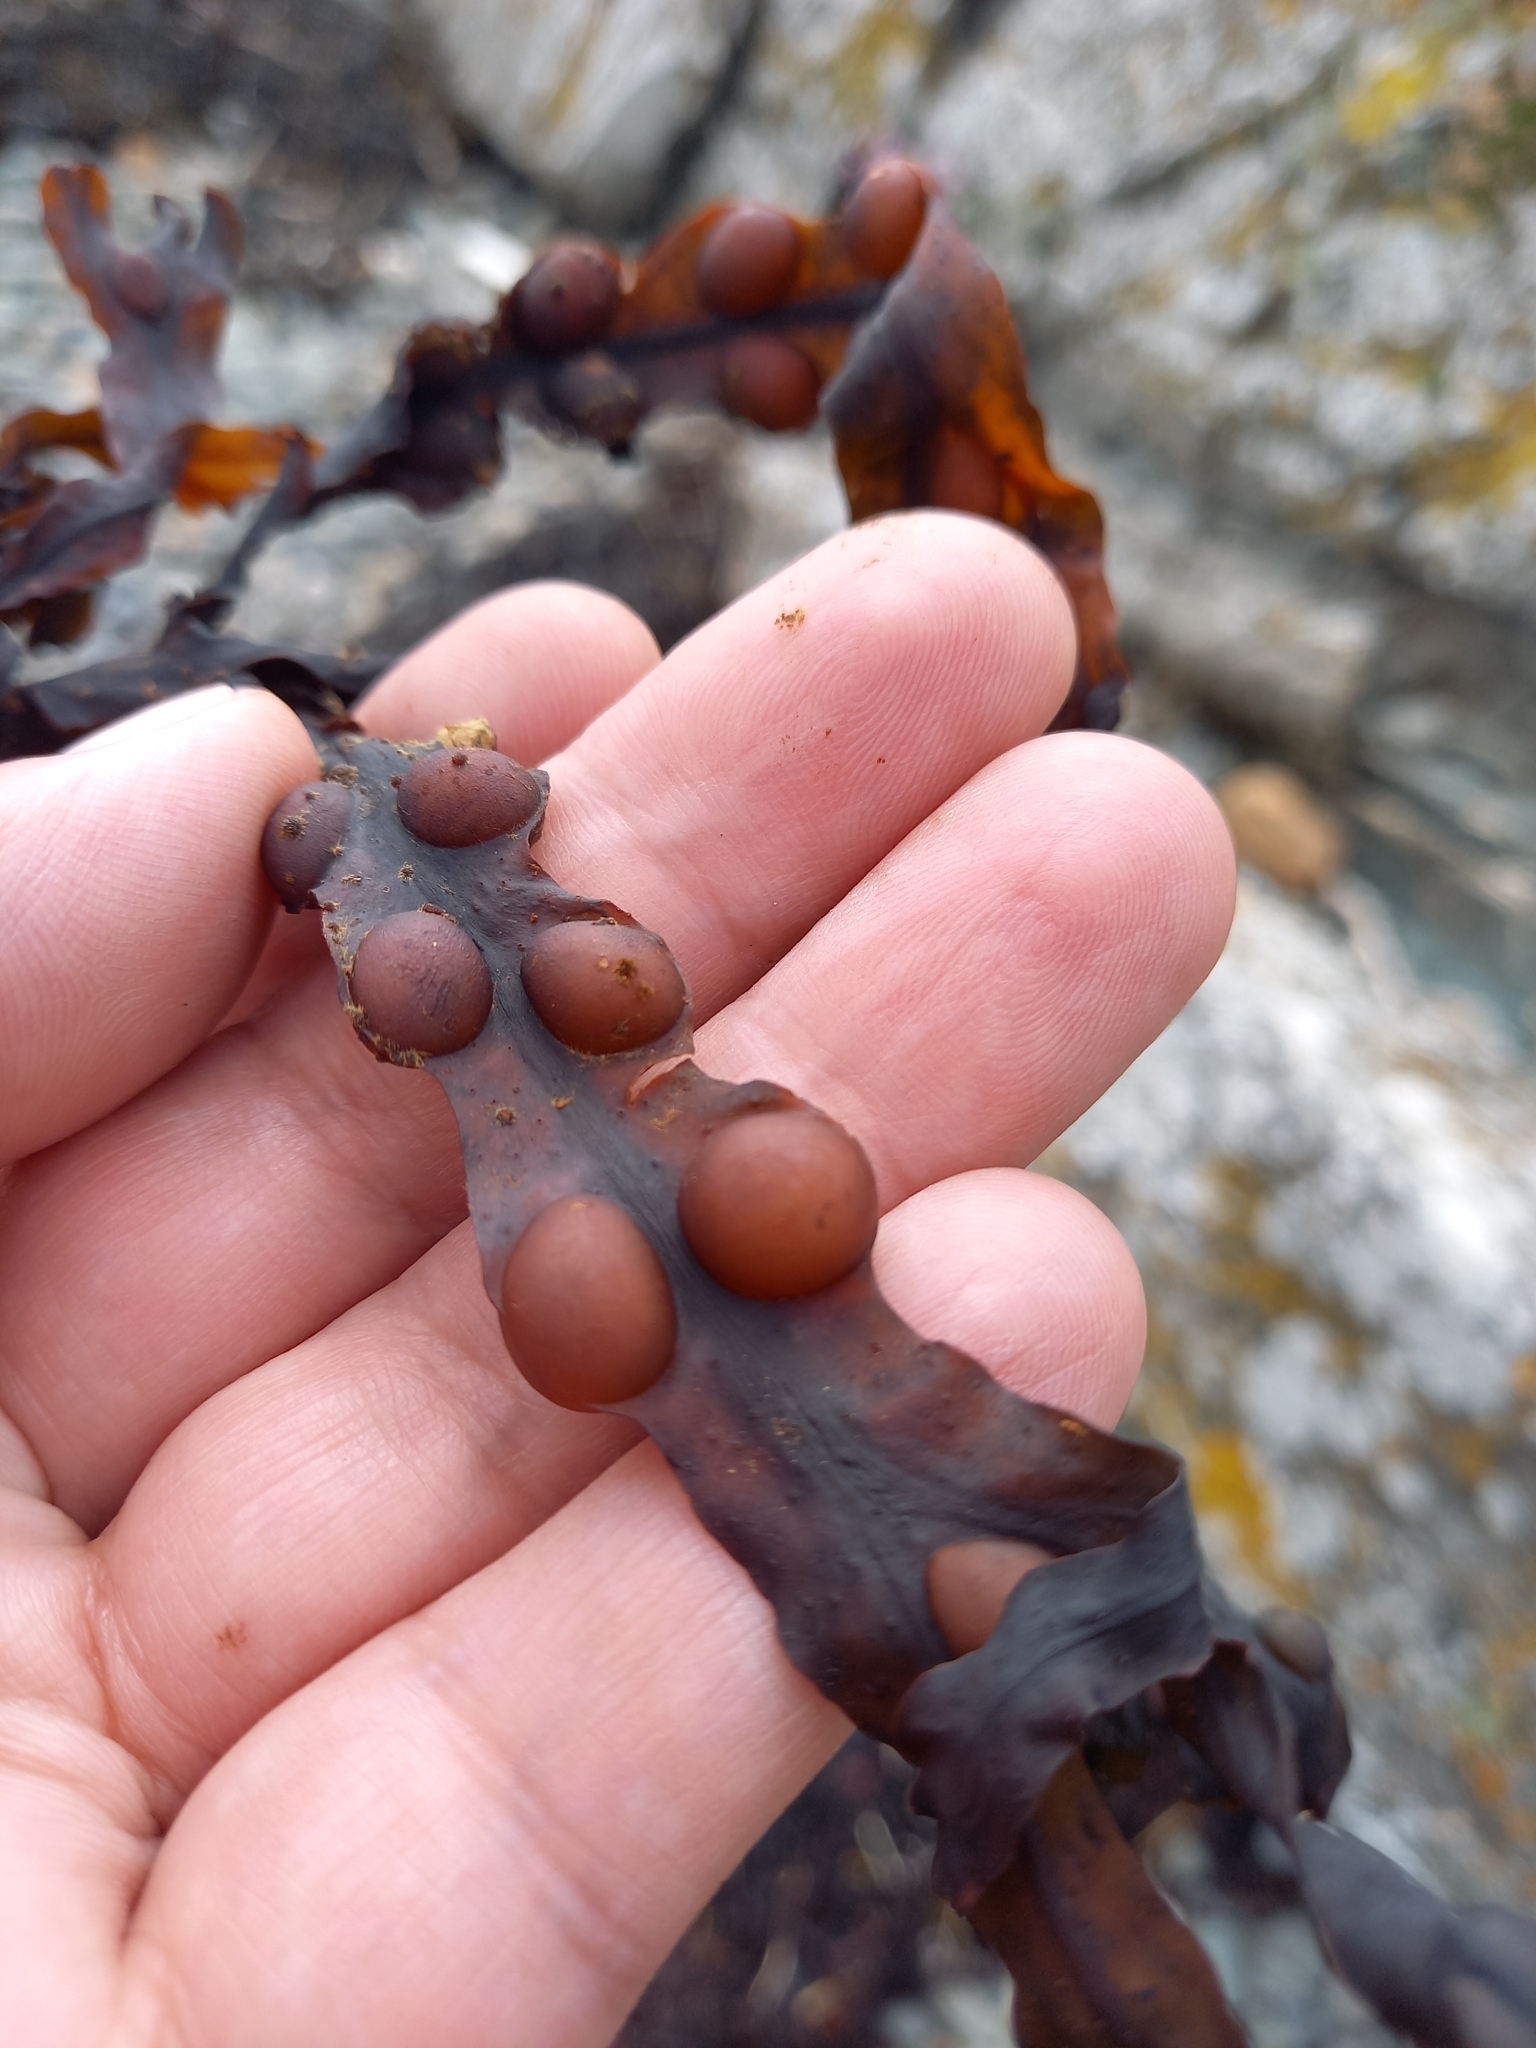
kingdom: Chromista
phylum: Ochrophyta
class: Phaeophyceae
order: Fucales
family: Fucaceae
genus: Fucus
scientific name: Fucus vesiculosus
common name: Bladder wrack
